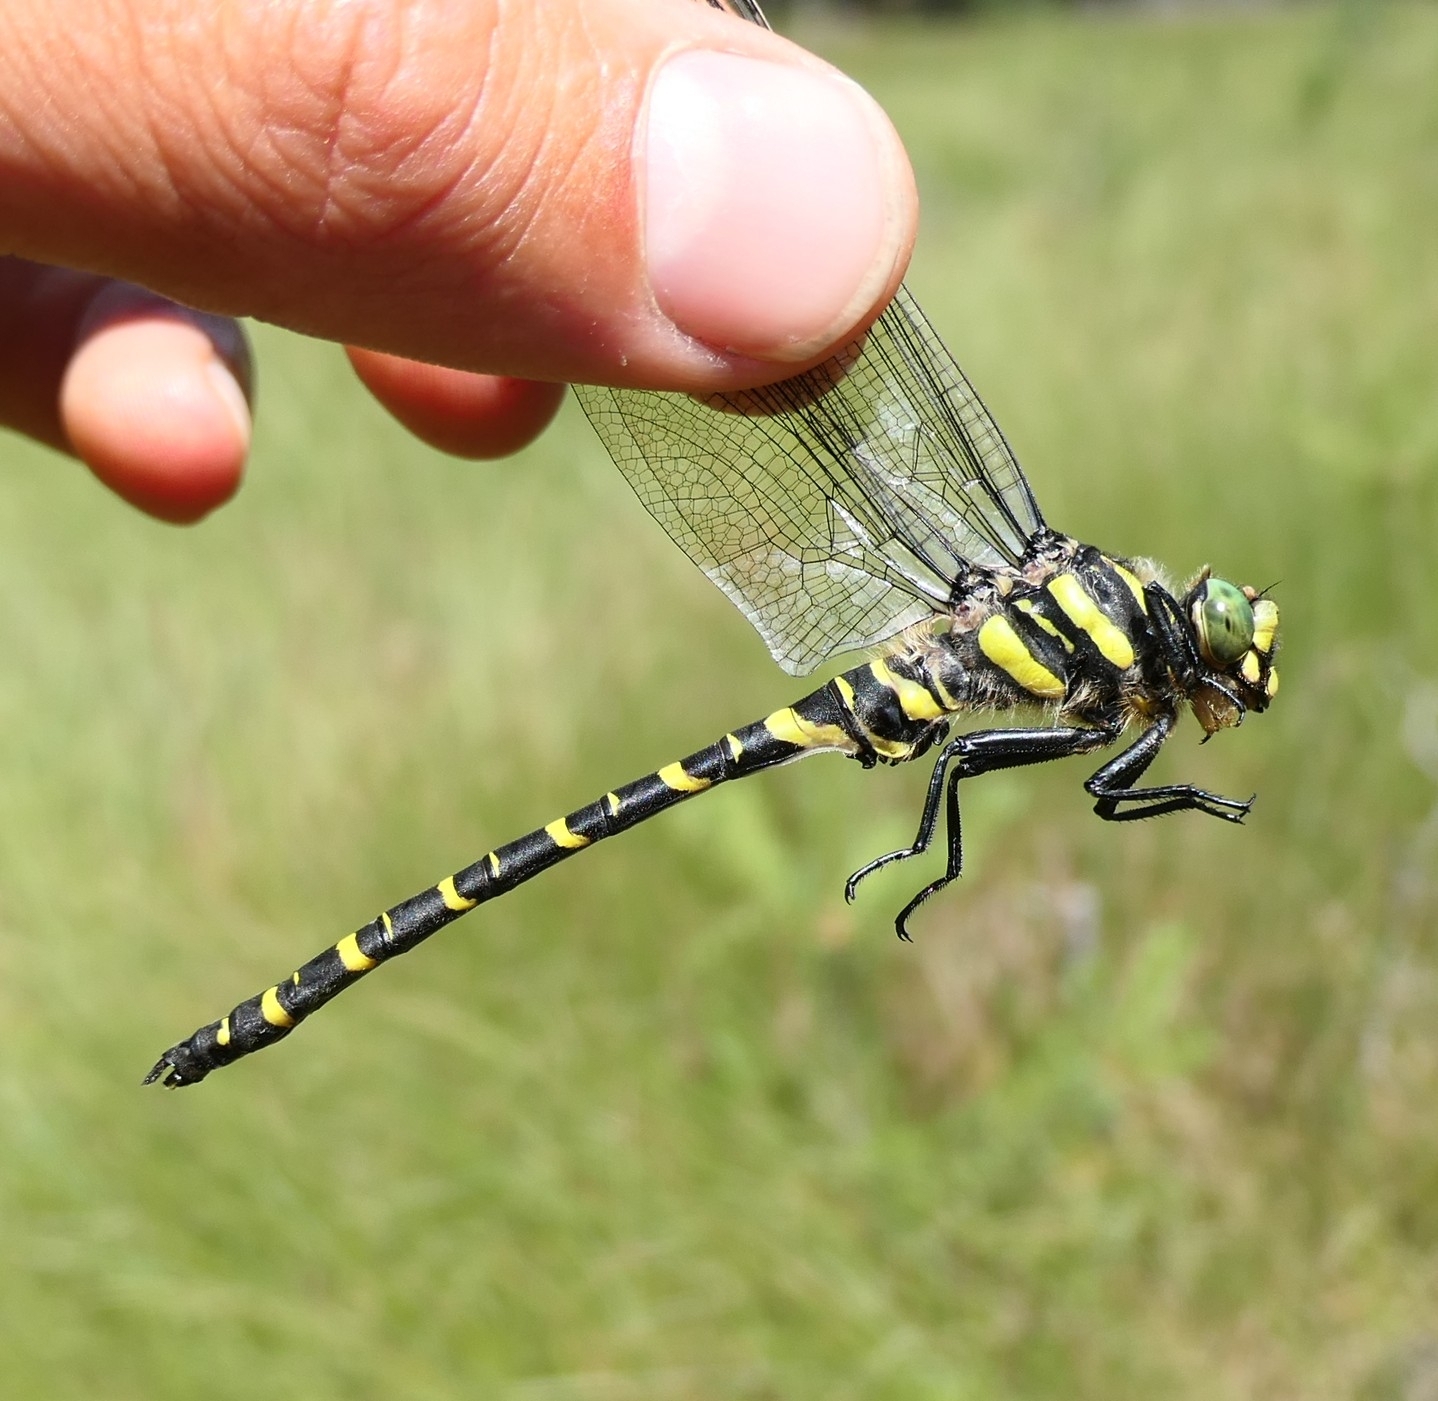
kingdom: Animalia
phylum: Arthropoda
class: Insecta
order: Odonata
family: Cordulegastridae
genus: Cordulegaster
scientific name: Cordulegaster boltonii
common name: Golden-ringed dragonfly
